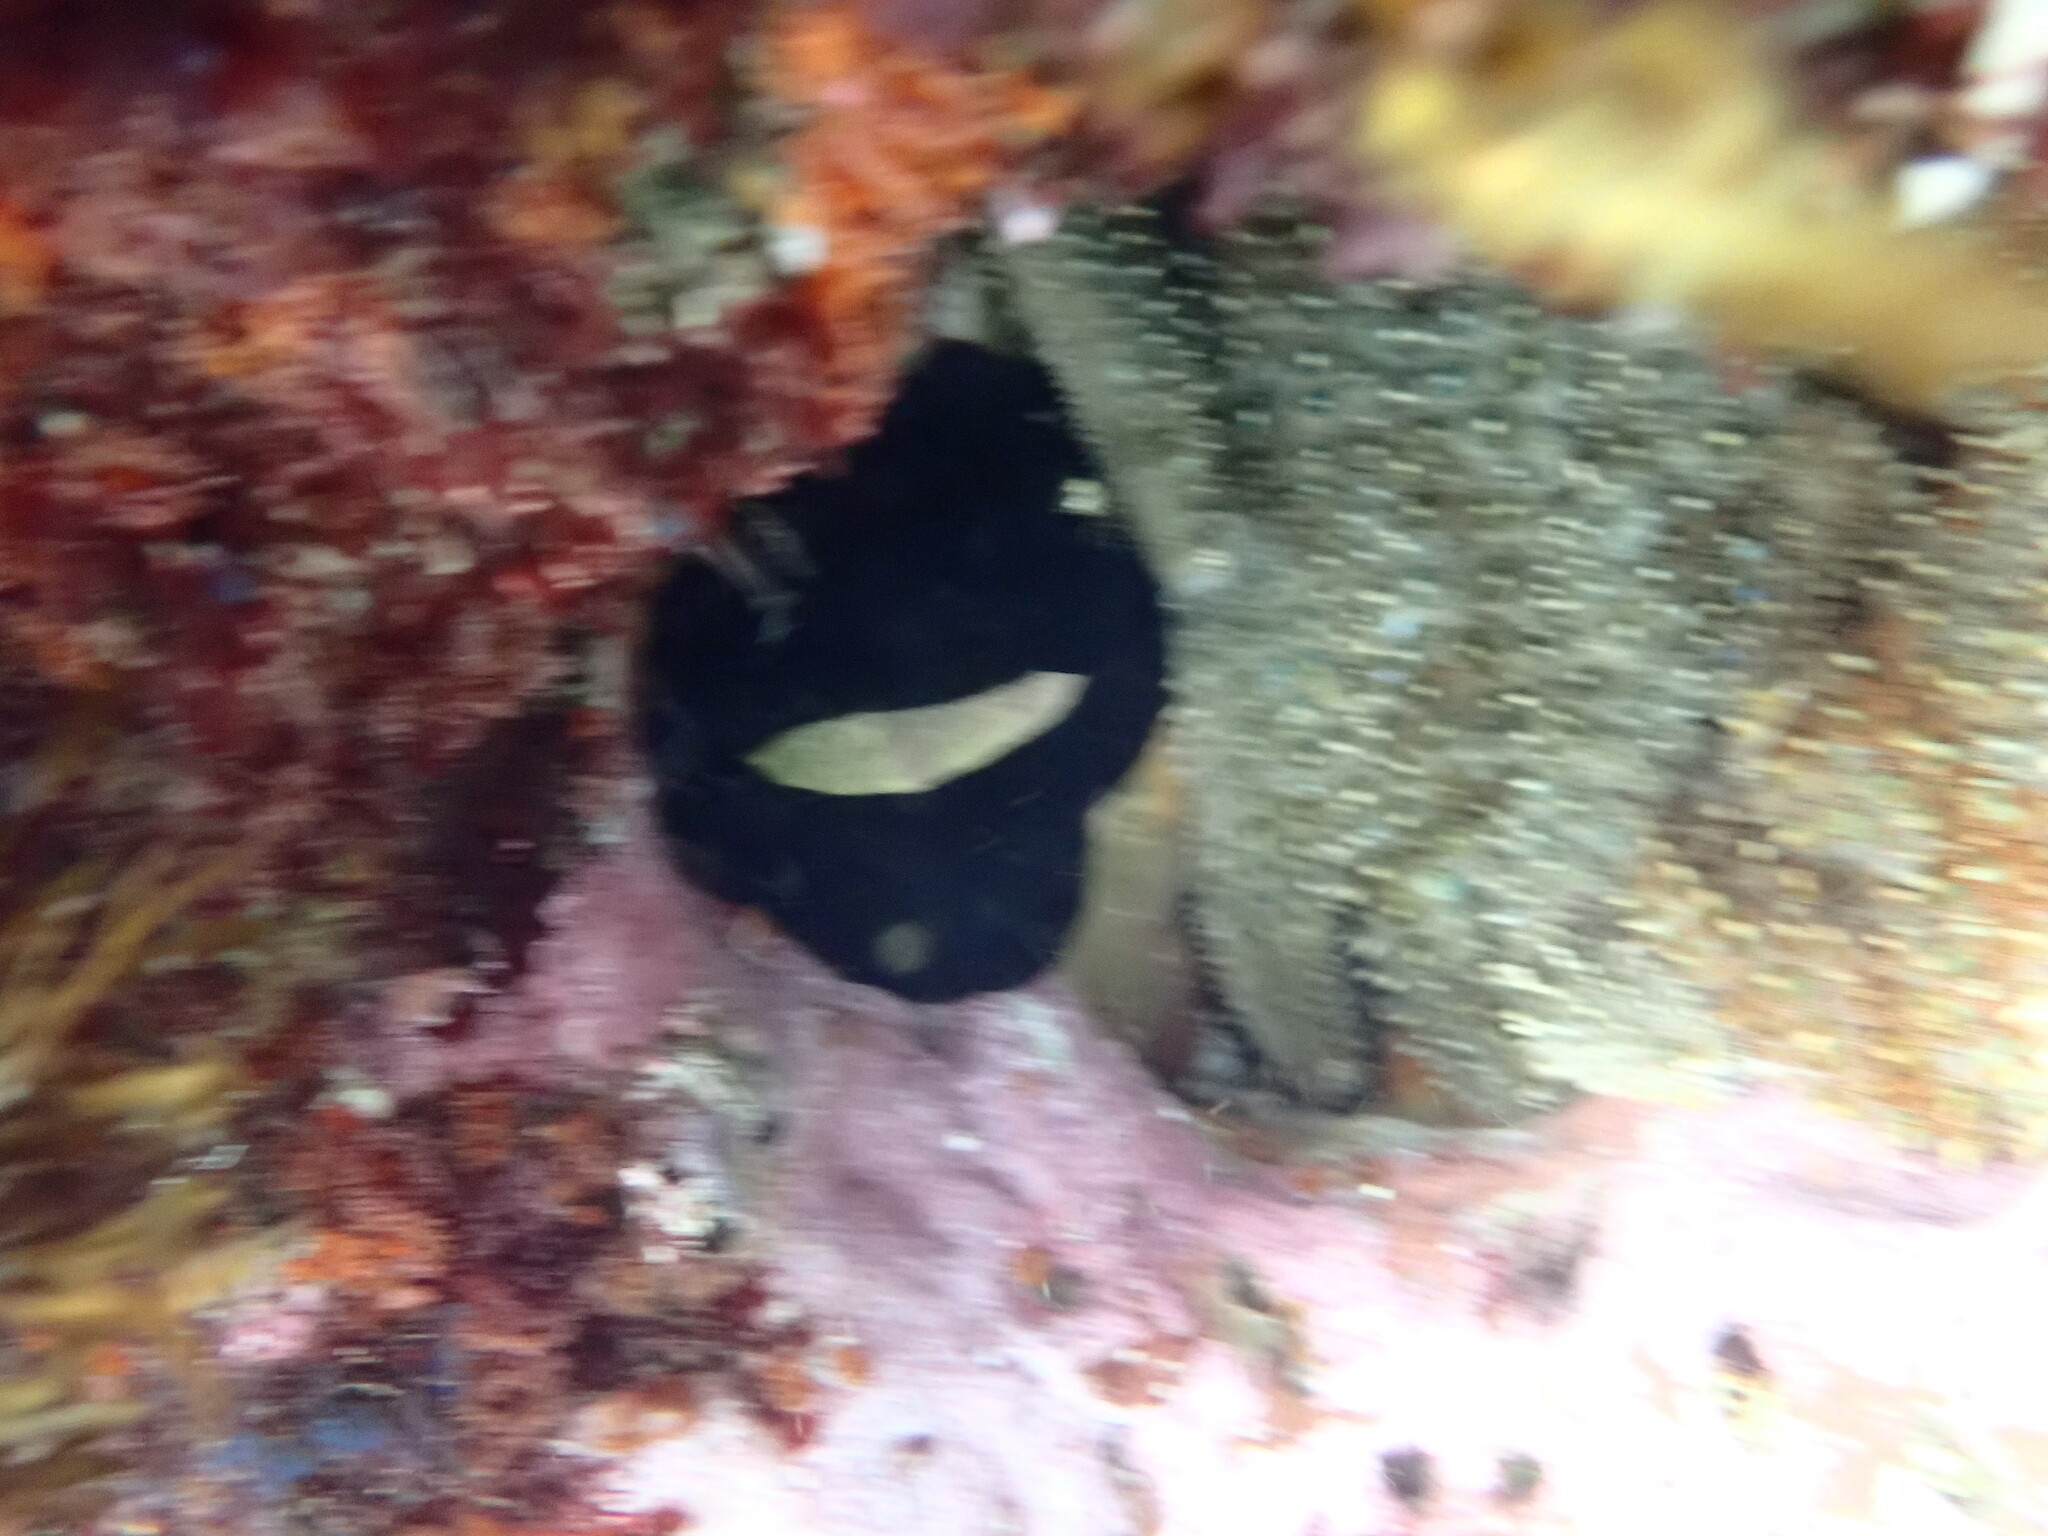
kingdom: Animalia
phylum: Mollusca
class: Gastropoda
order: Lepetellida
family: Fissurellidae
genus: Scutus
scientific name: Scutus antipodes
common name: Duckbill shell
